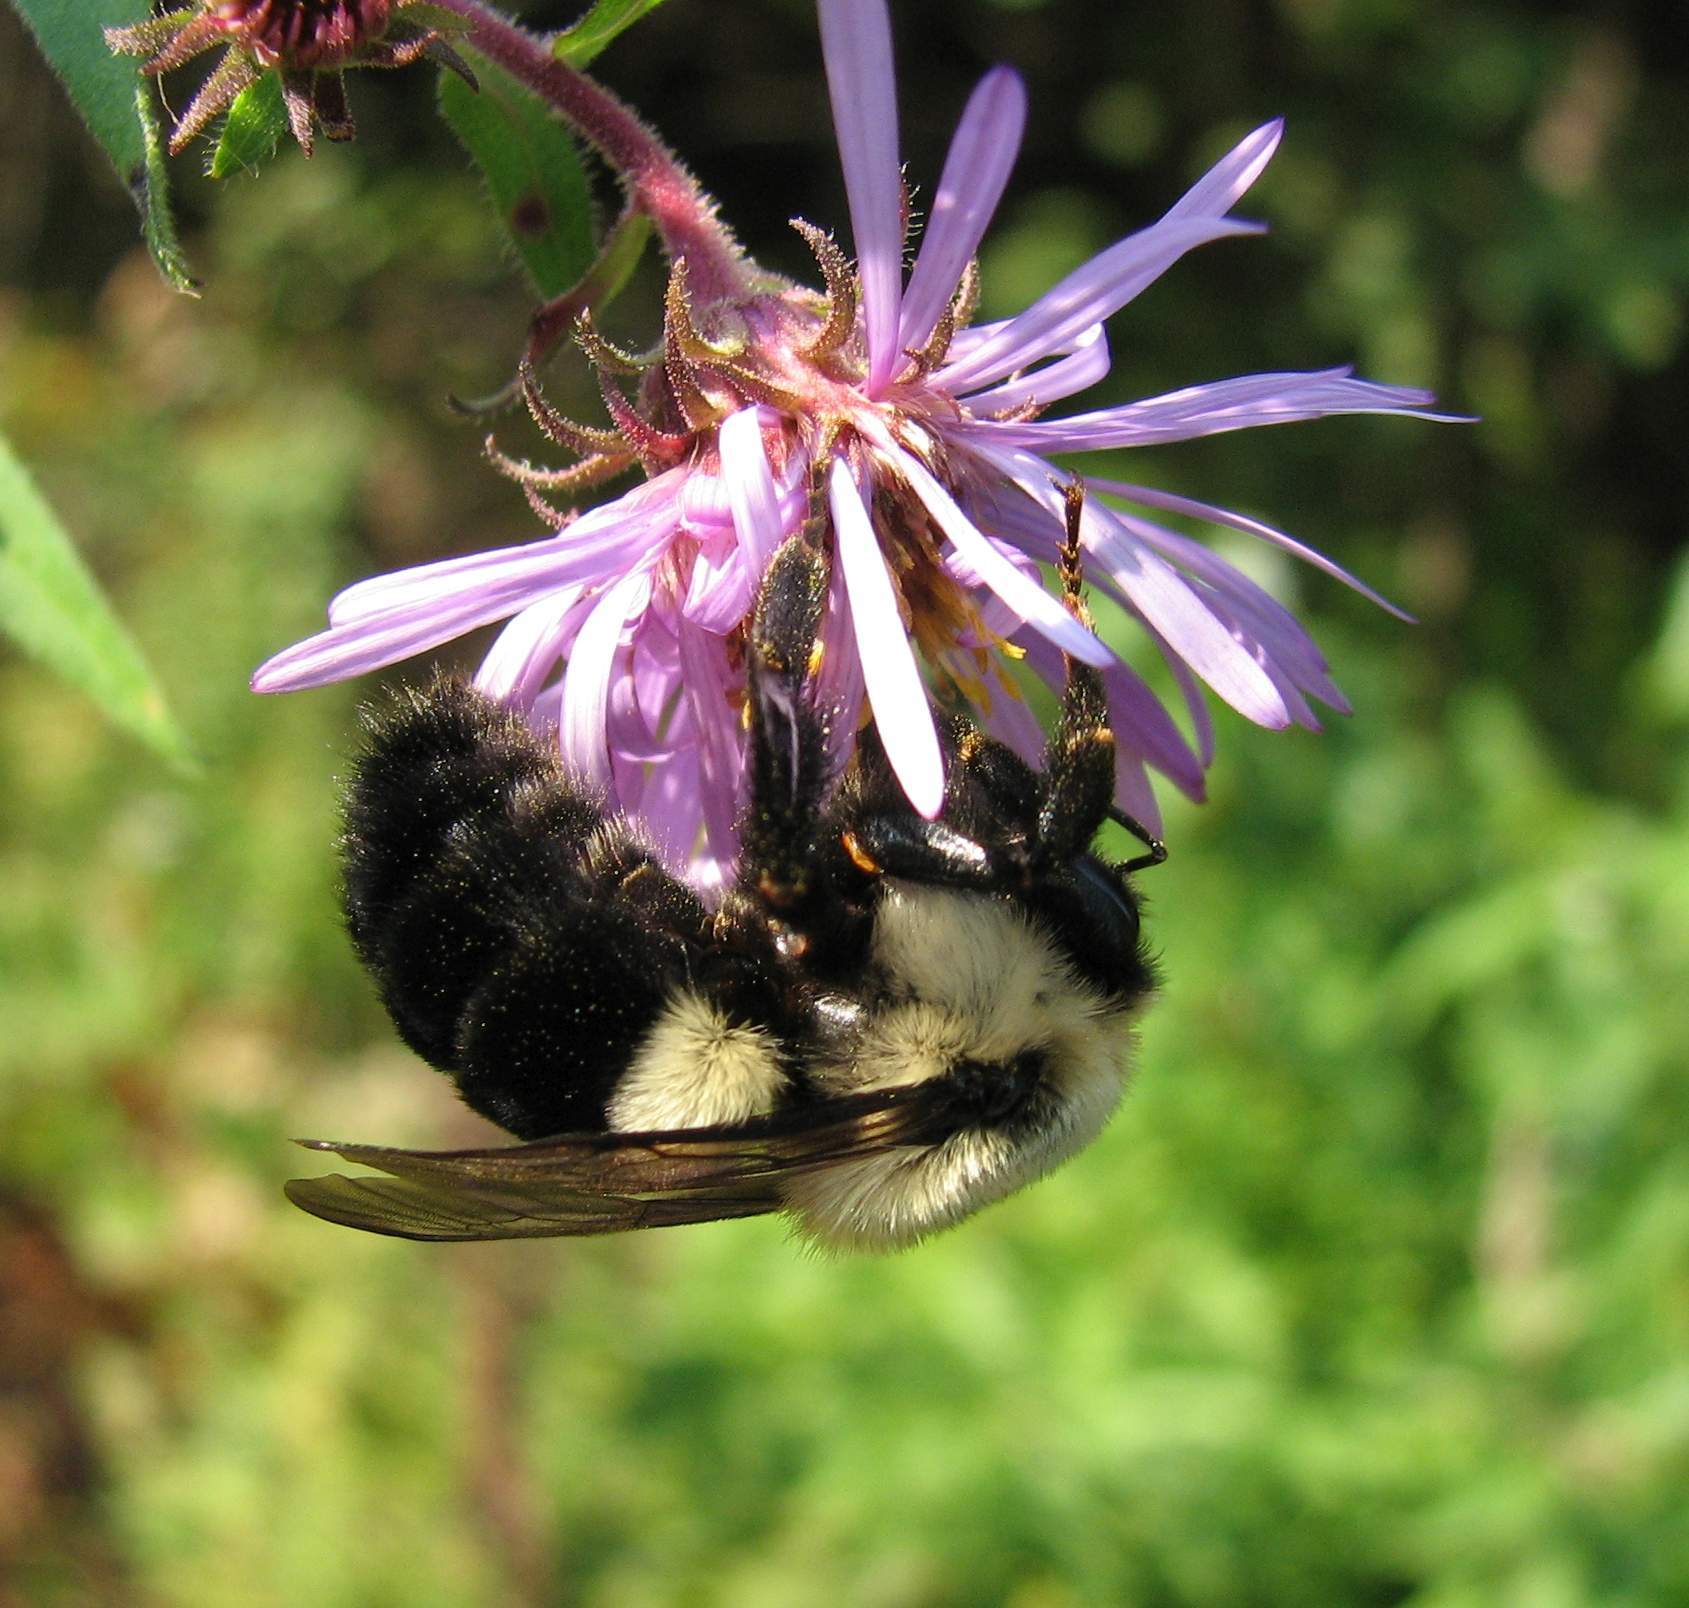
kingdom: Animalia
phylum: Arthropoda
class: Insecta
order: Hymenoptera
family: Apidae
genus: Bombus
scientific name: Bombus impatiens
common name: Common eastern bumble bee
